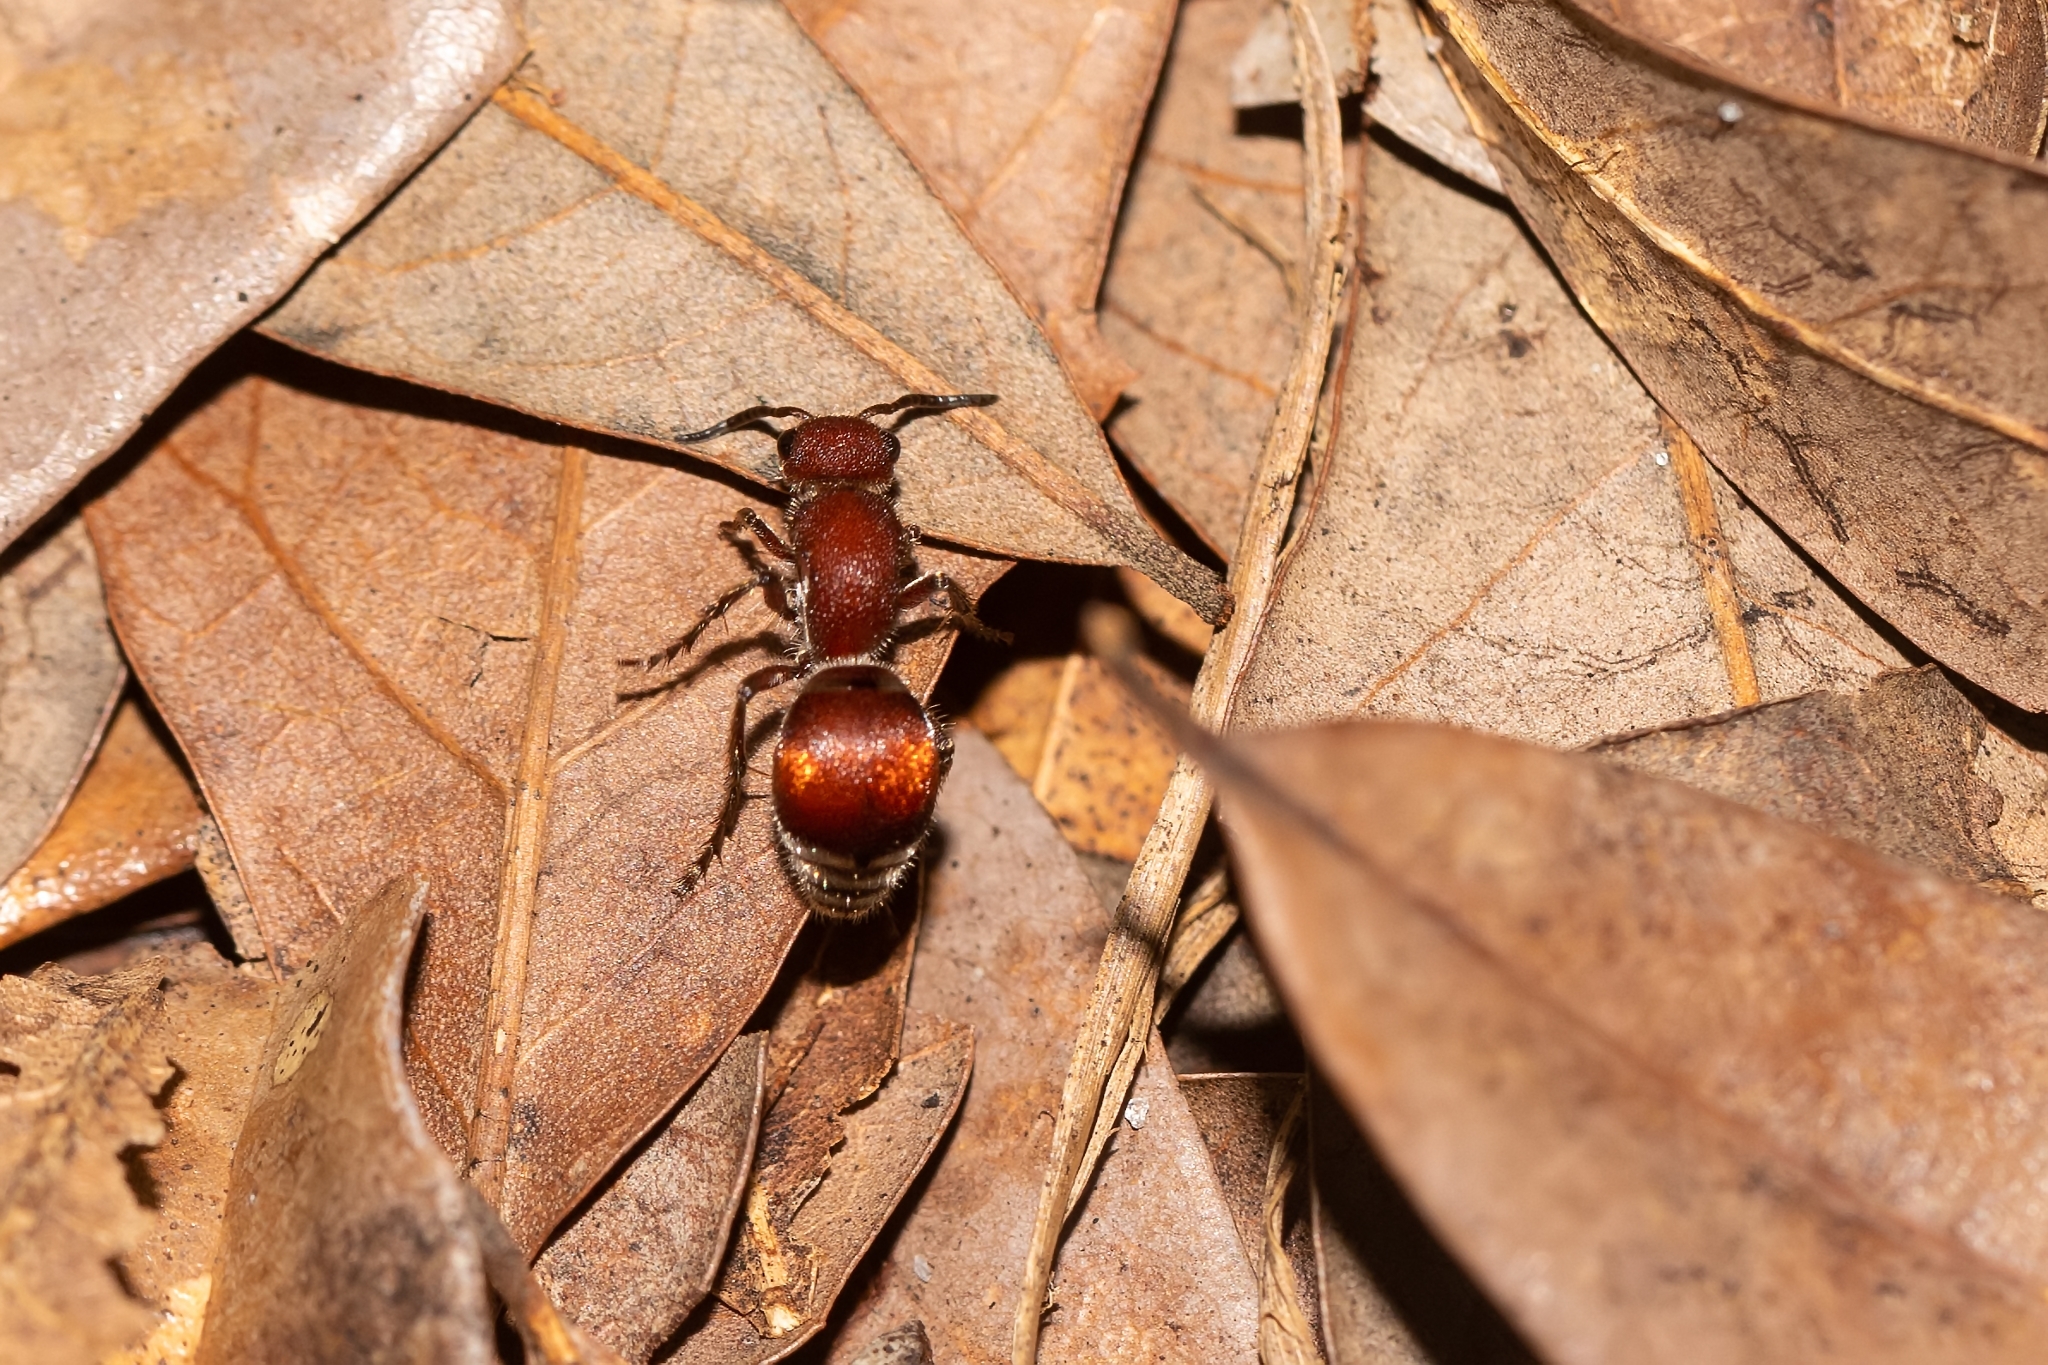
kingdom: Animalia
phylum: Arthropoda
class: Insecta
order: Hymenoptera
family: Mutillidae
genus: Pseudomethoca
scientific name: Pseudomethoca sanbornii
